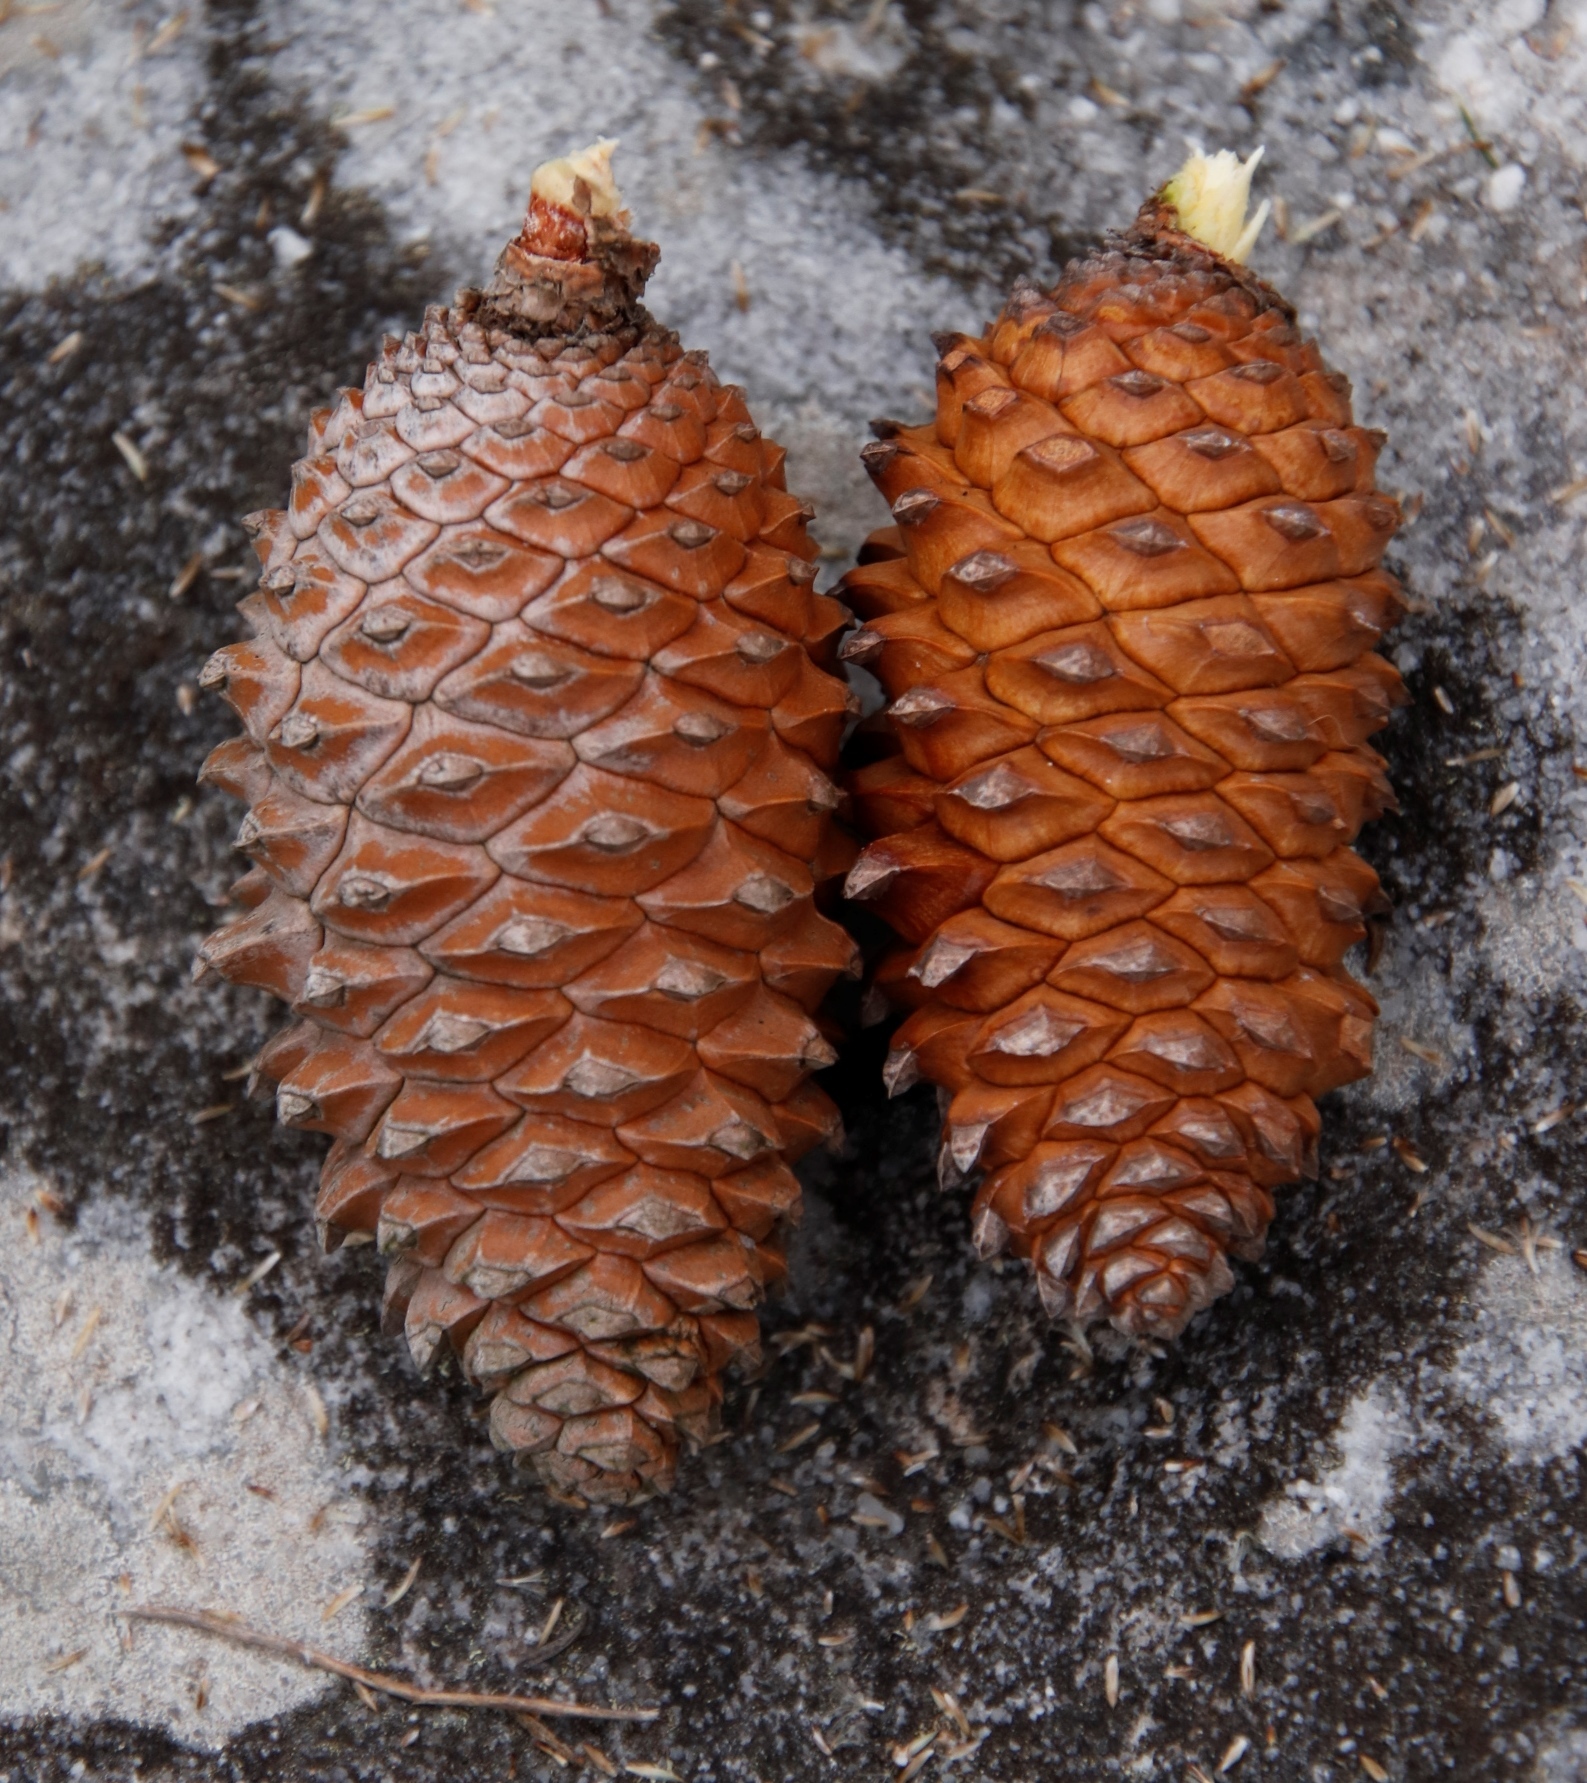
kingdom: Plantae
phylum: Tracheophyta
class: Pinopsida
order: Pinales
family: Pinaceae
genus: Pinus
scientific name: Pinus pinaster
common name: Maritime pine
